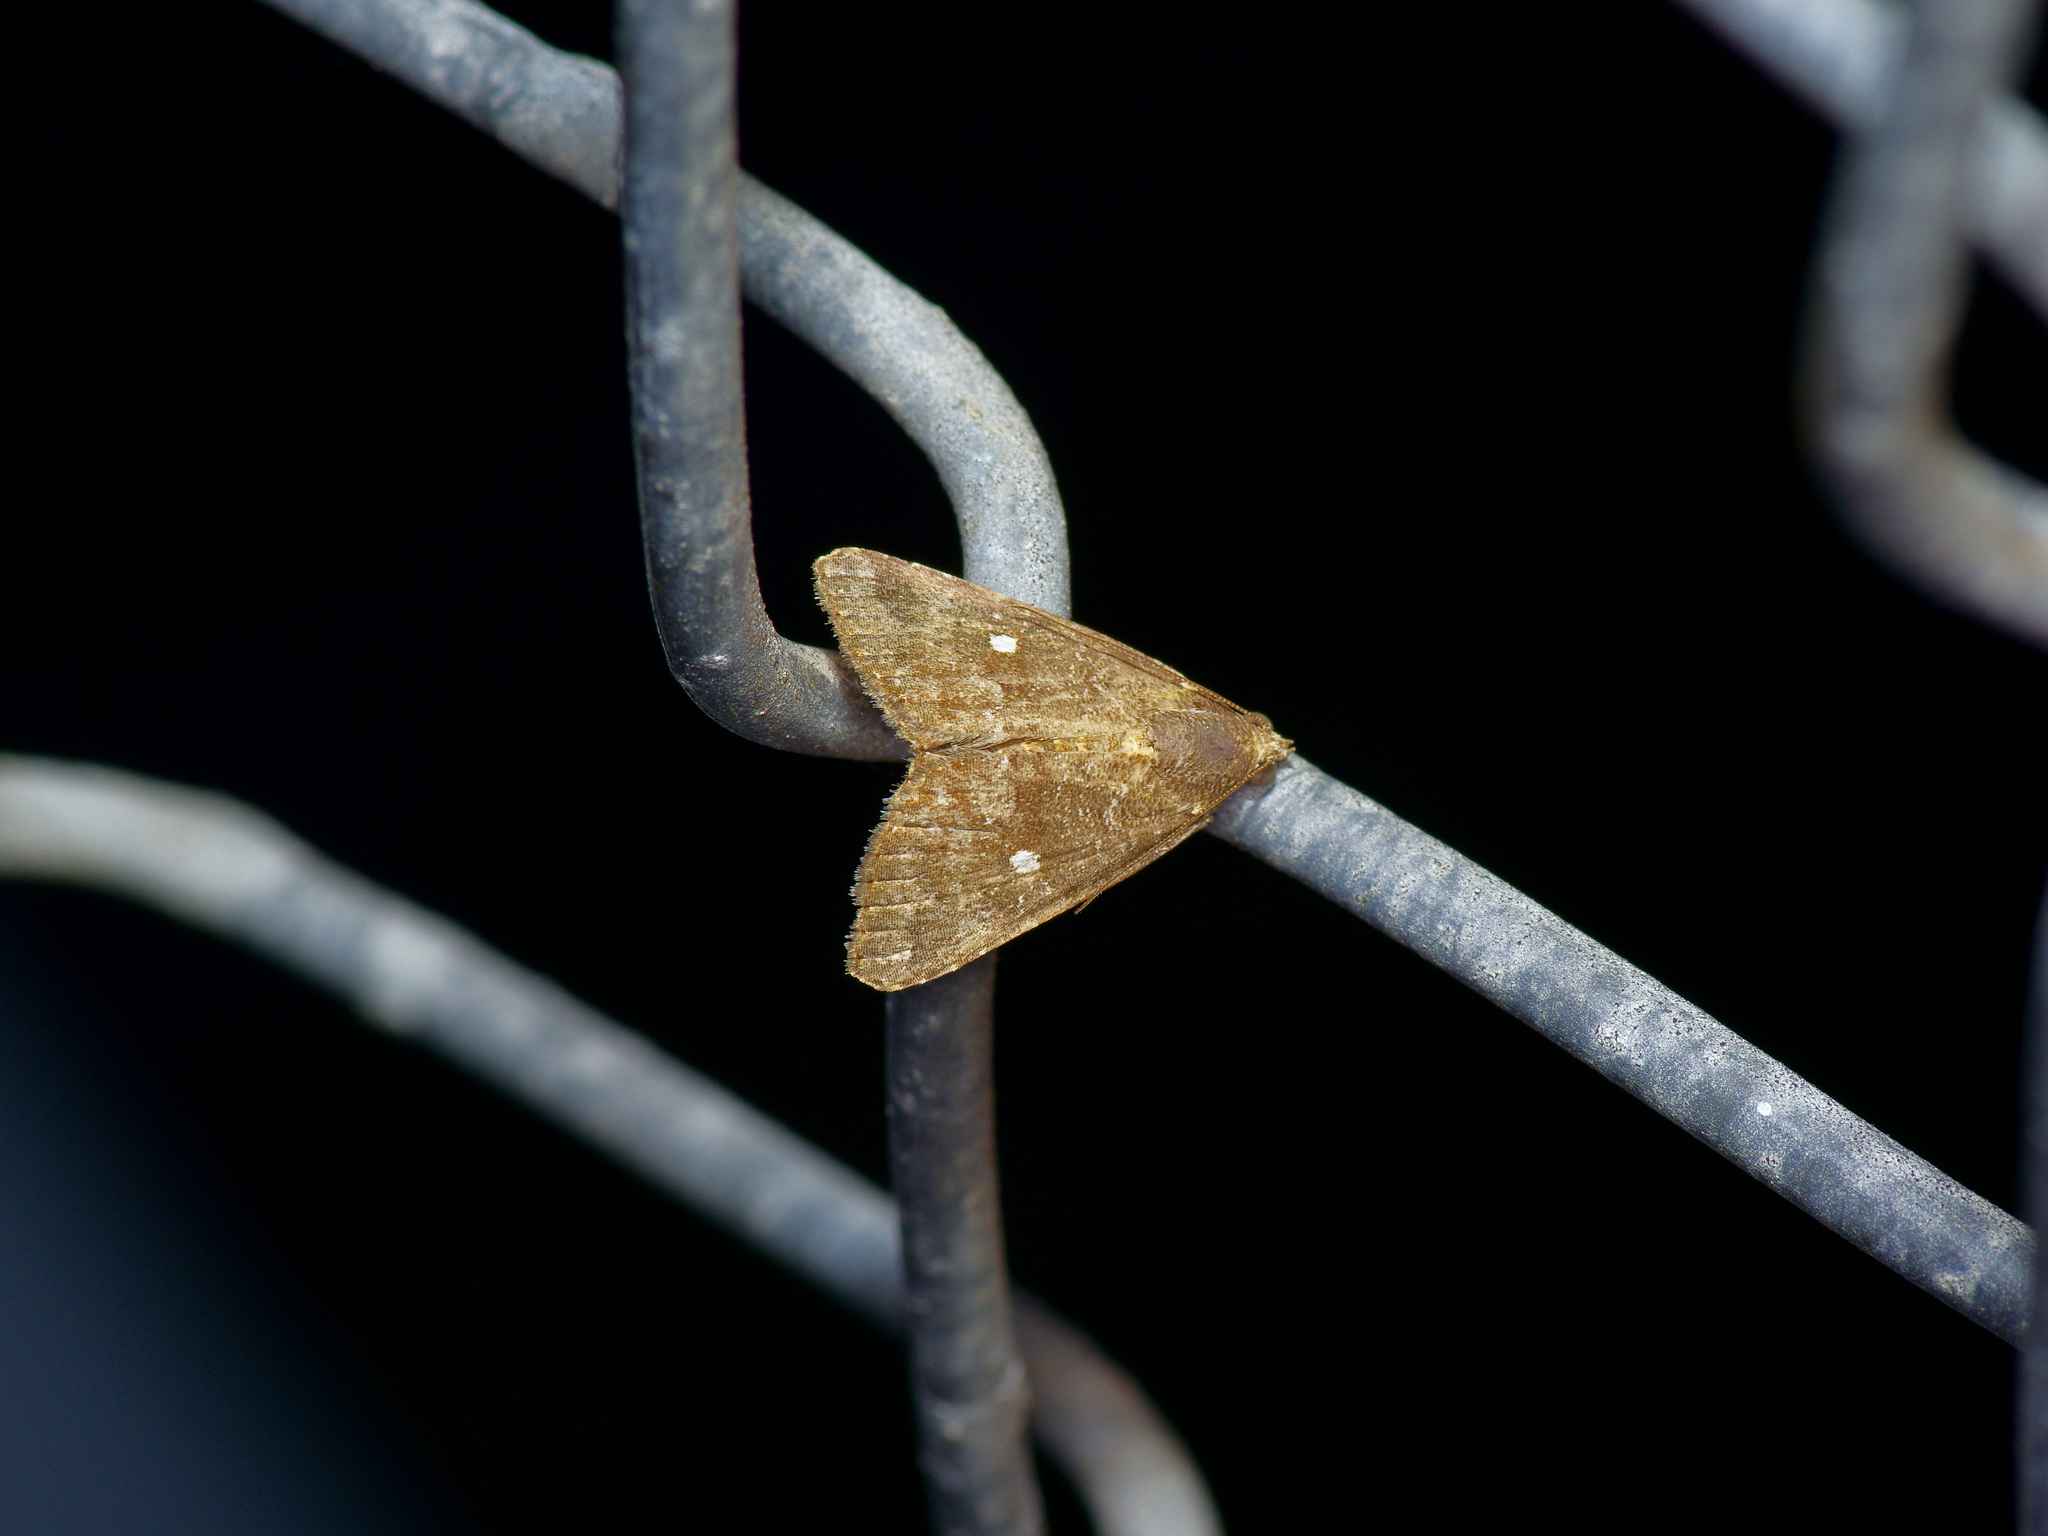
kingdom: Animalia
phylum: Arthropoda
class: Insecta
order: Lepidoptera
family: Noctuidae
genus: Amyna
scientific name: Amyna stricta
